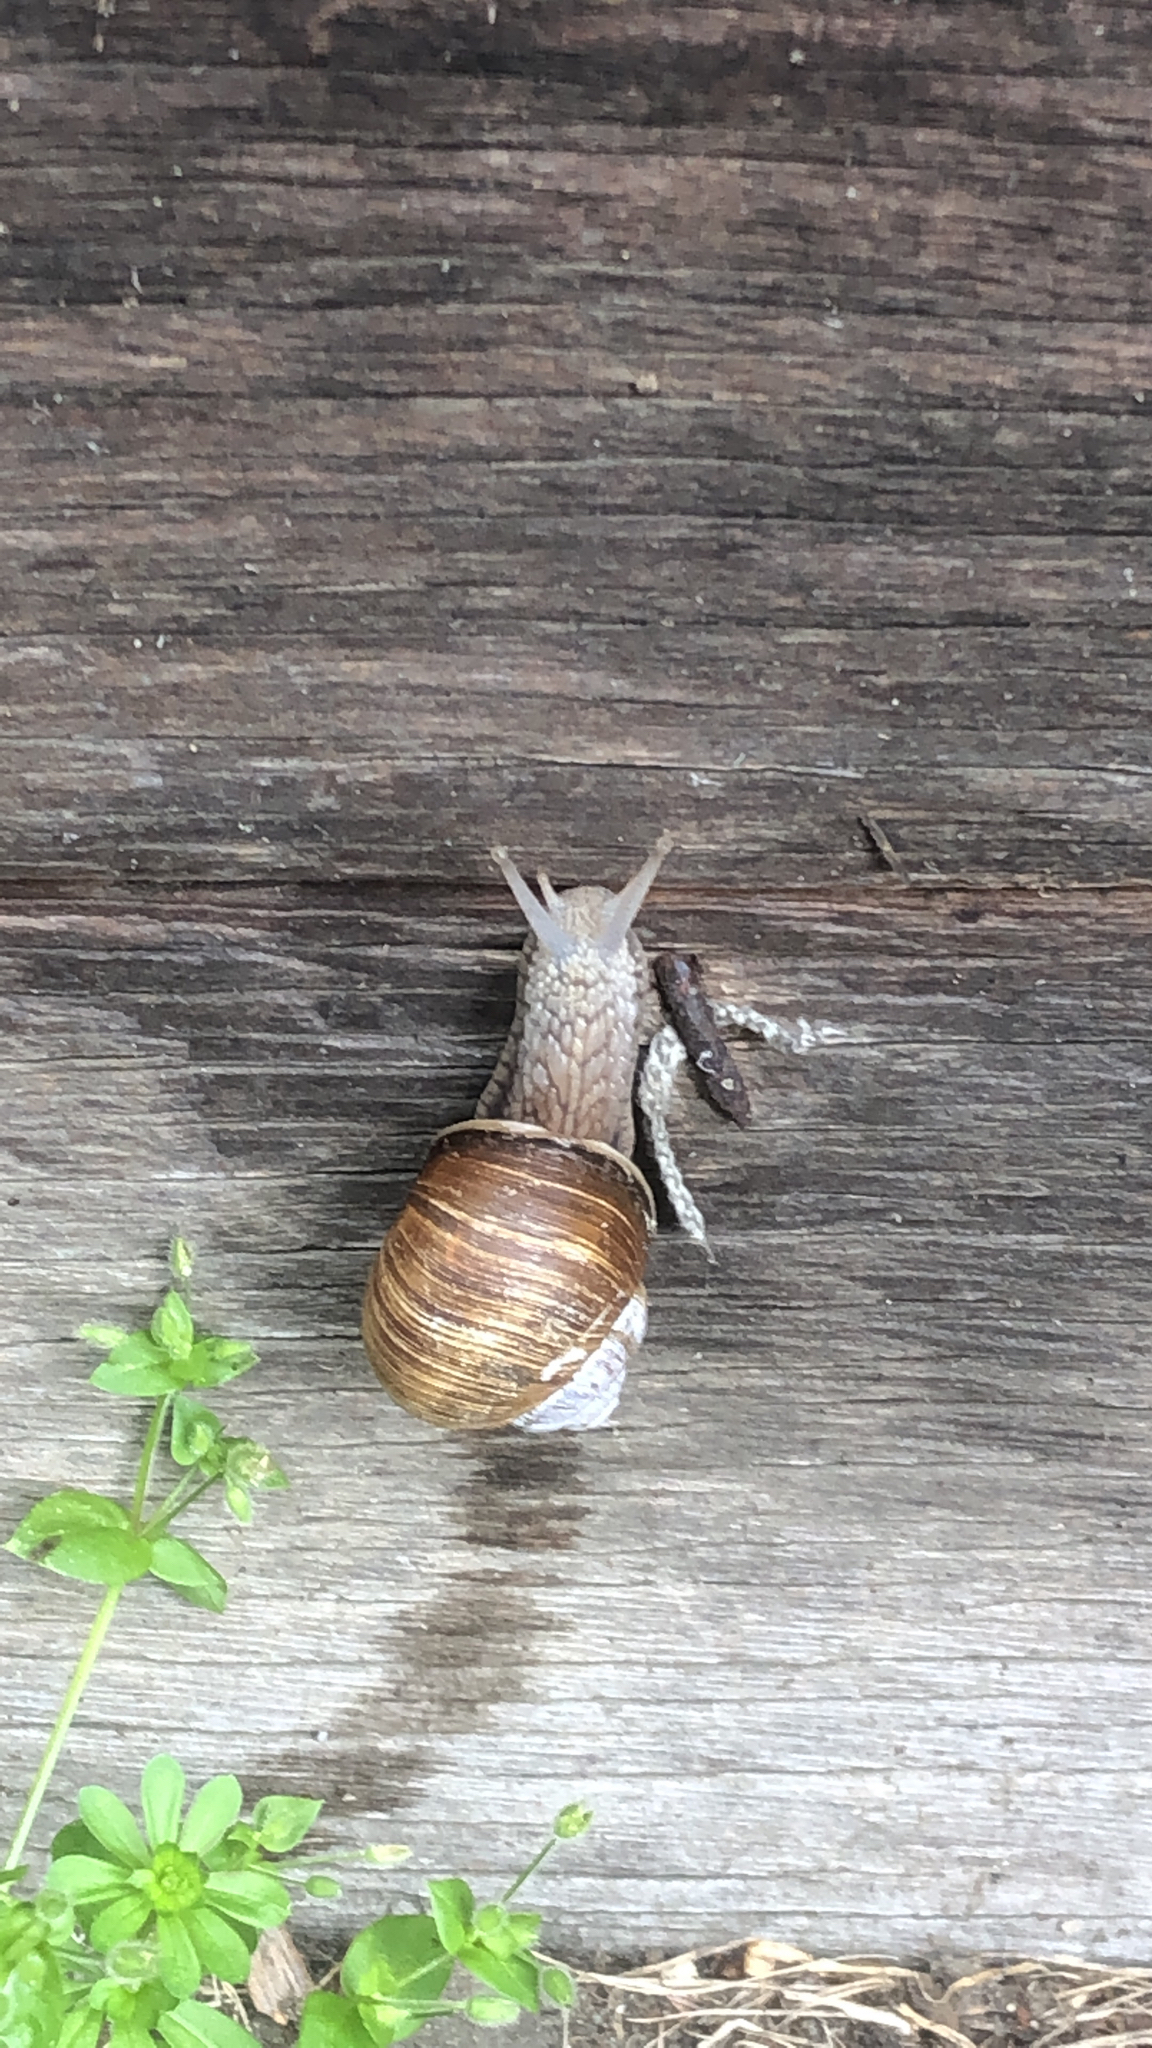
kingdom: Animalia
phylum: Mollusca
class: Gastropoda
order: Stylommatophora
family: Helicidae
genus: Helix
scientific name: Helix pomatia
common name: Roman snail
